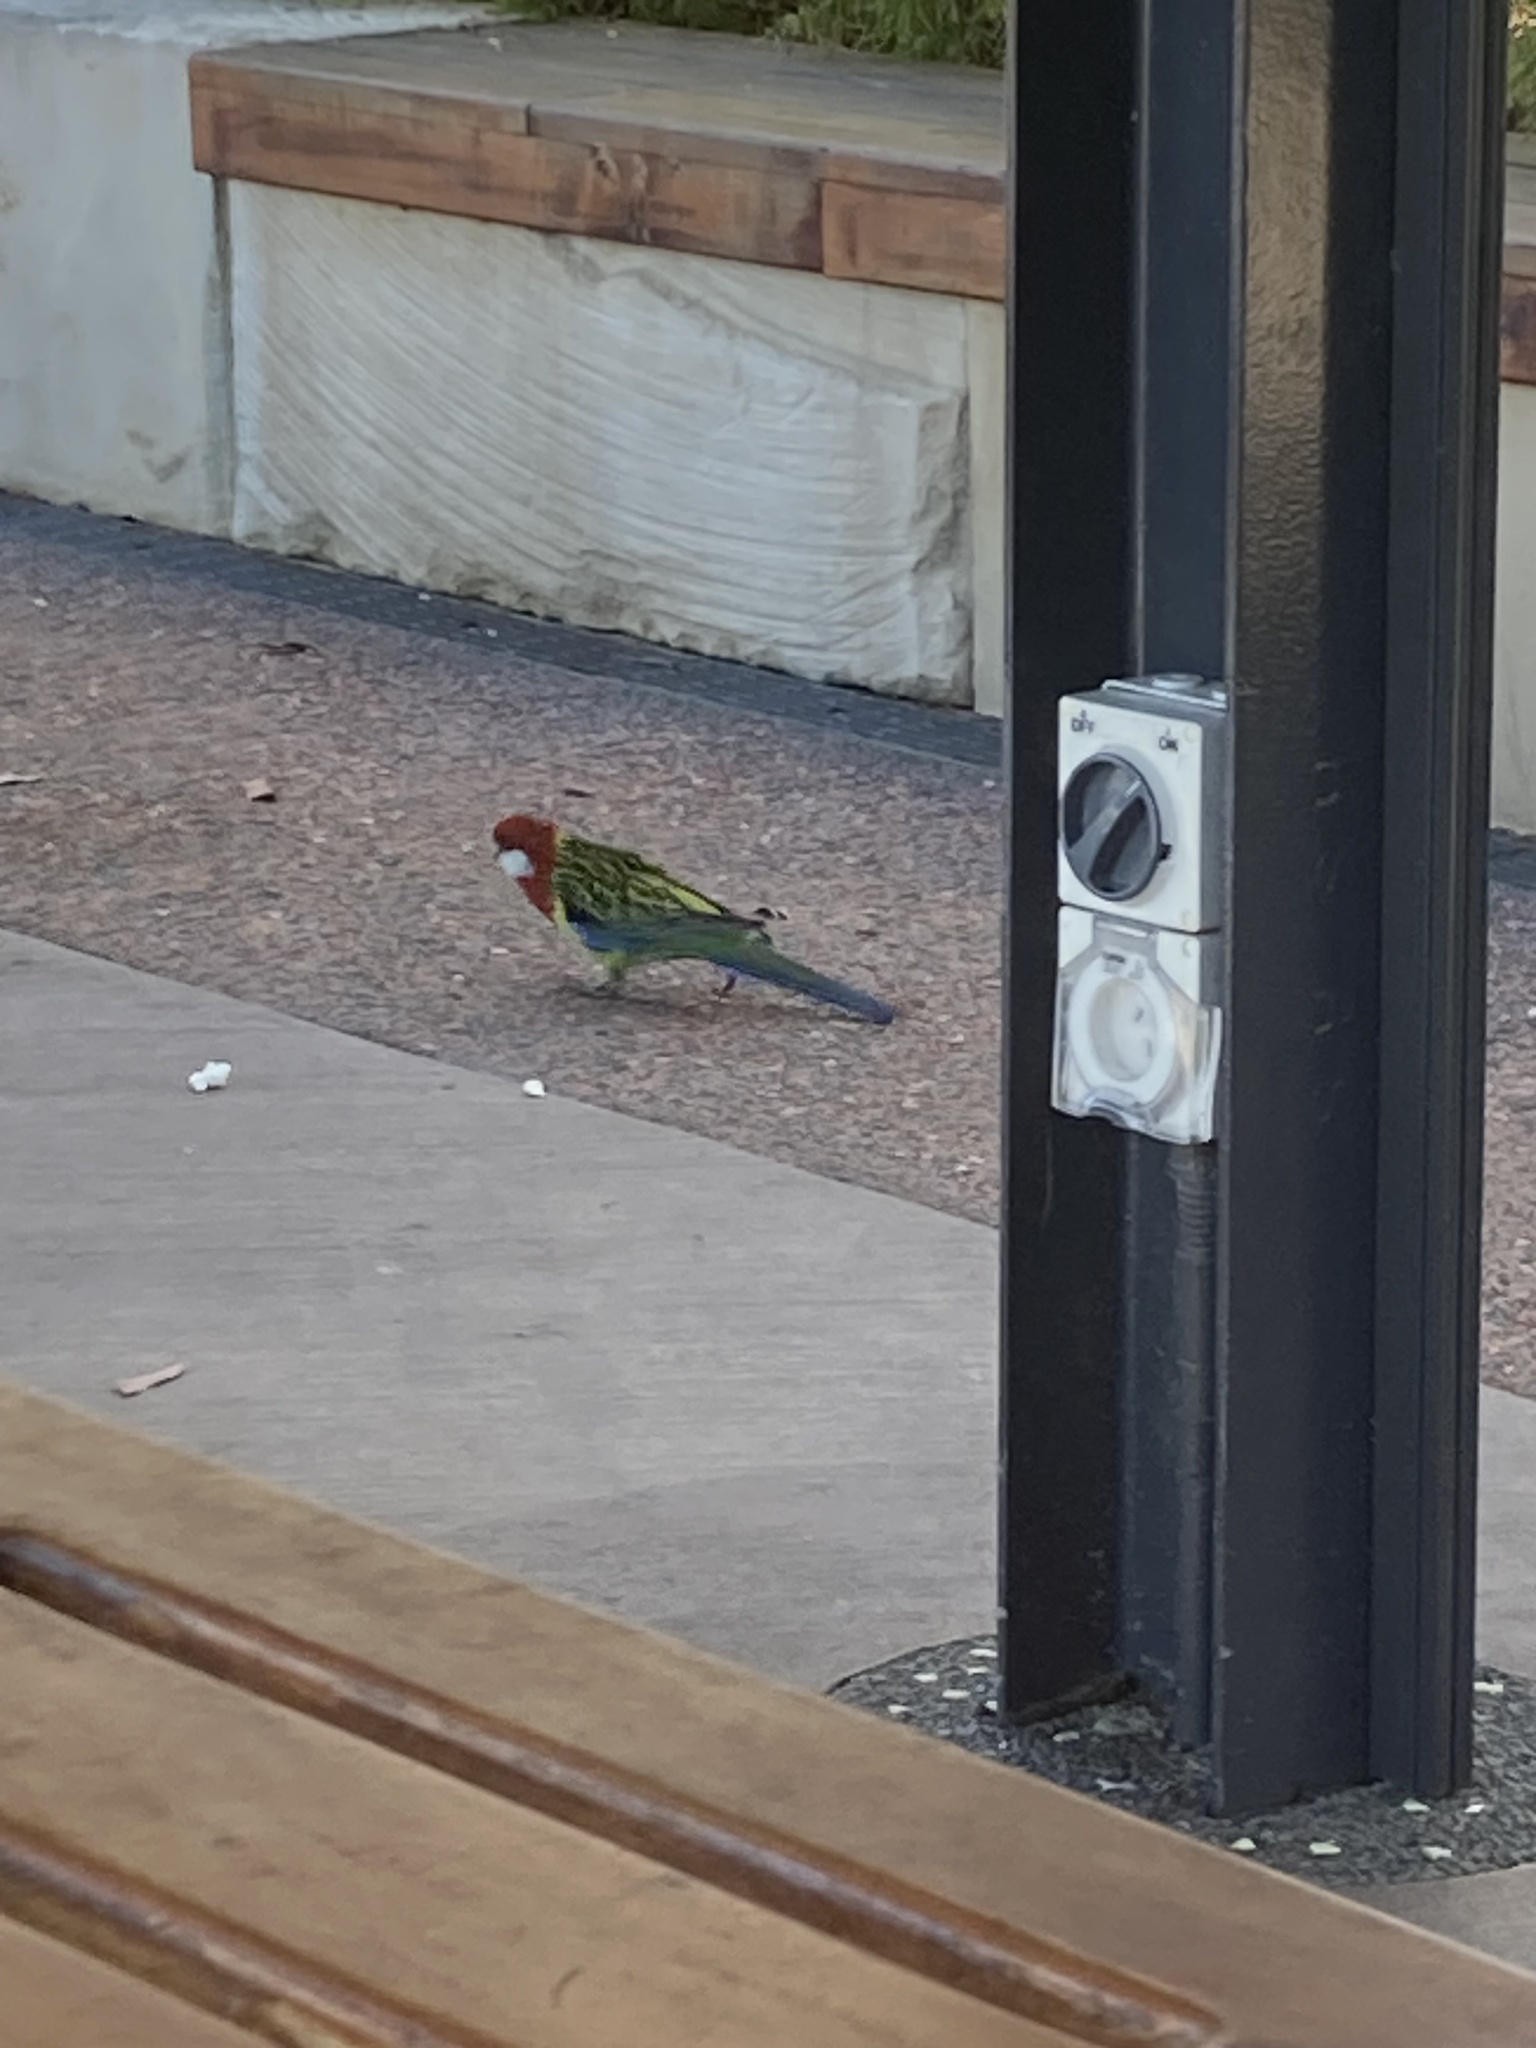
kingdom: Animalia
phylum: Chordata
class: Aves
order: Psittaciformes
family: Psittacidae
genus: Platycercus
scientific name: Platycercus eximius
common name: Eastern rosella
